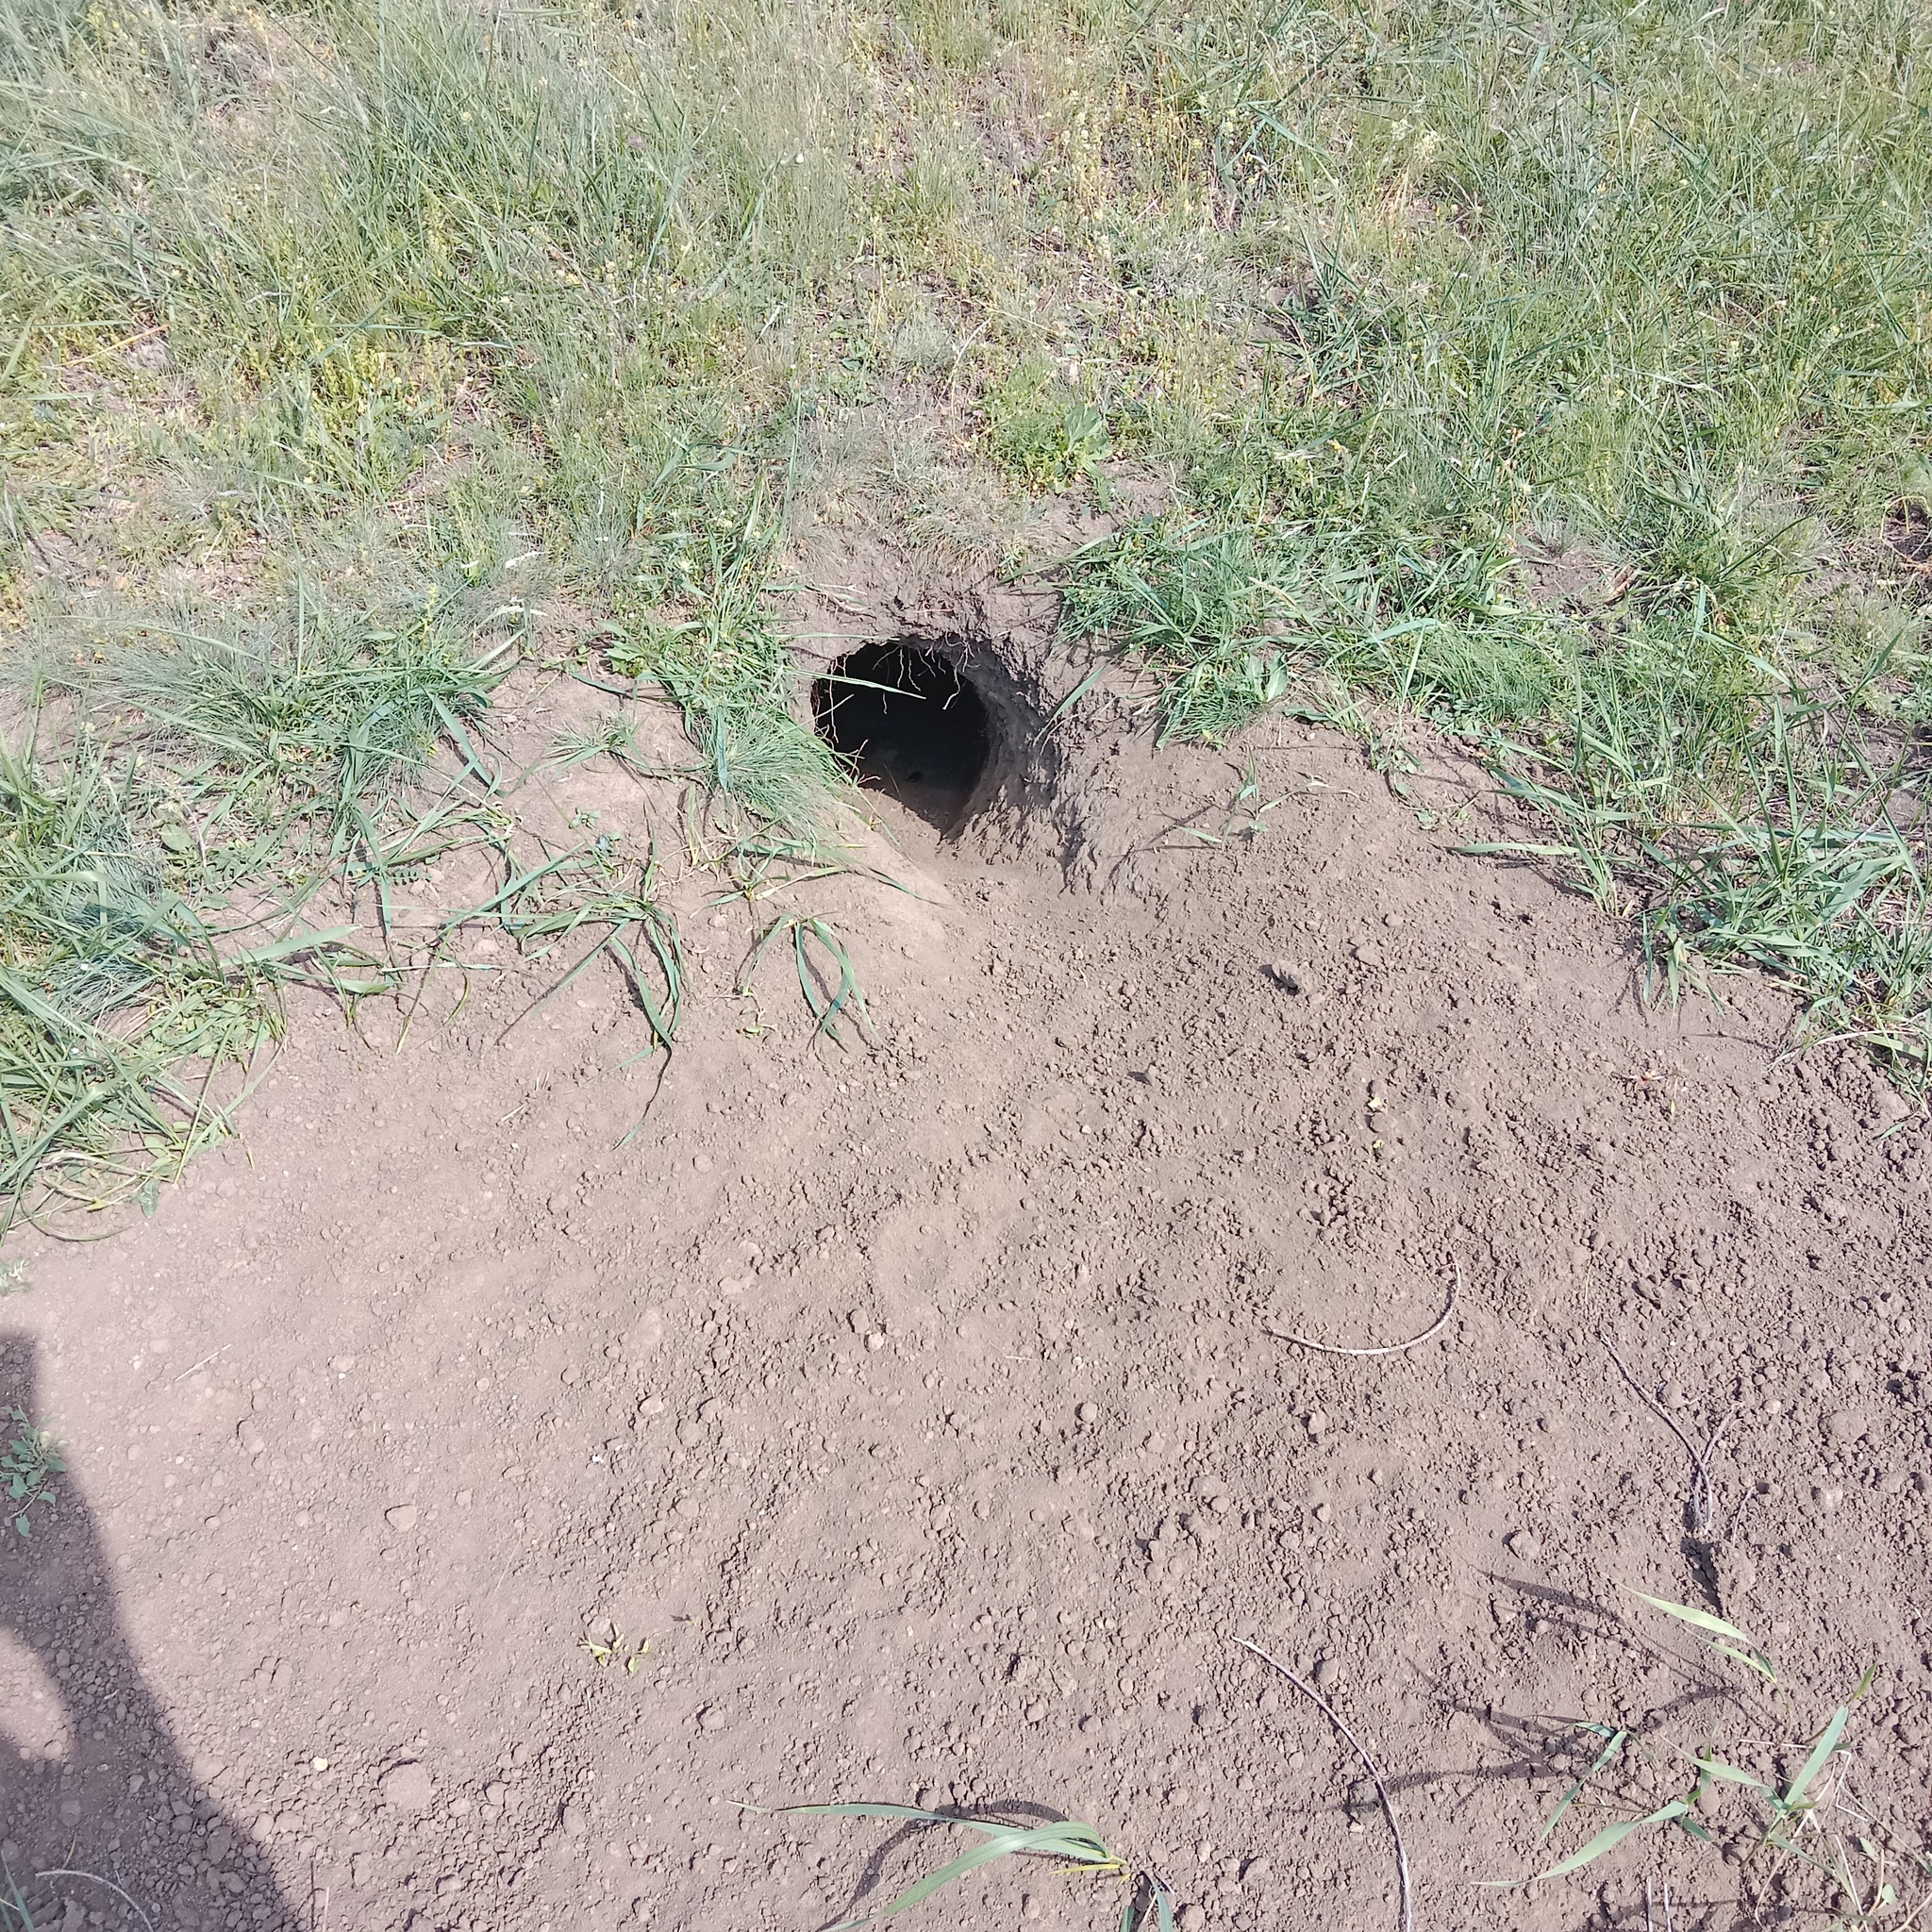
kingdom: Animalia
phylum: Chordata
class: Mammalia
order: Rodentia
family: Sciuridae
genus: Marmota
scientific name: Marmota bobak
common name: Bobak marmot
